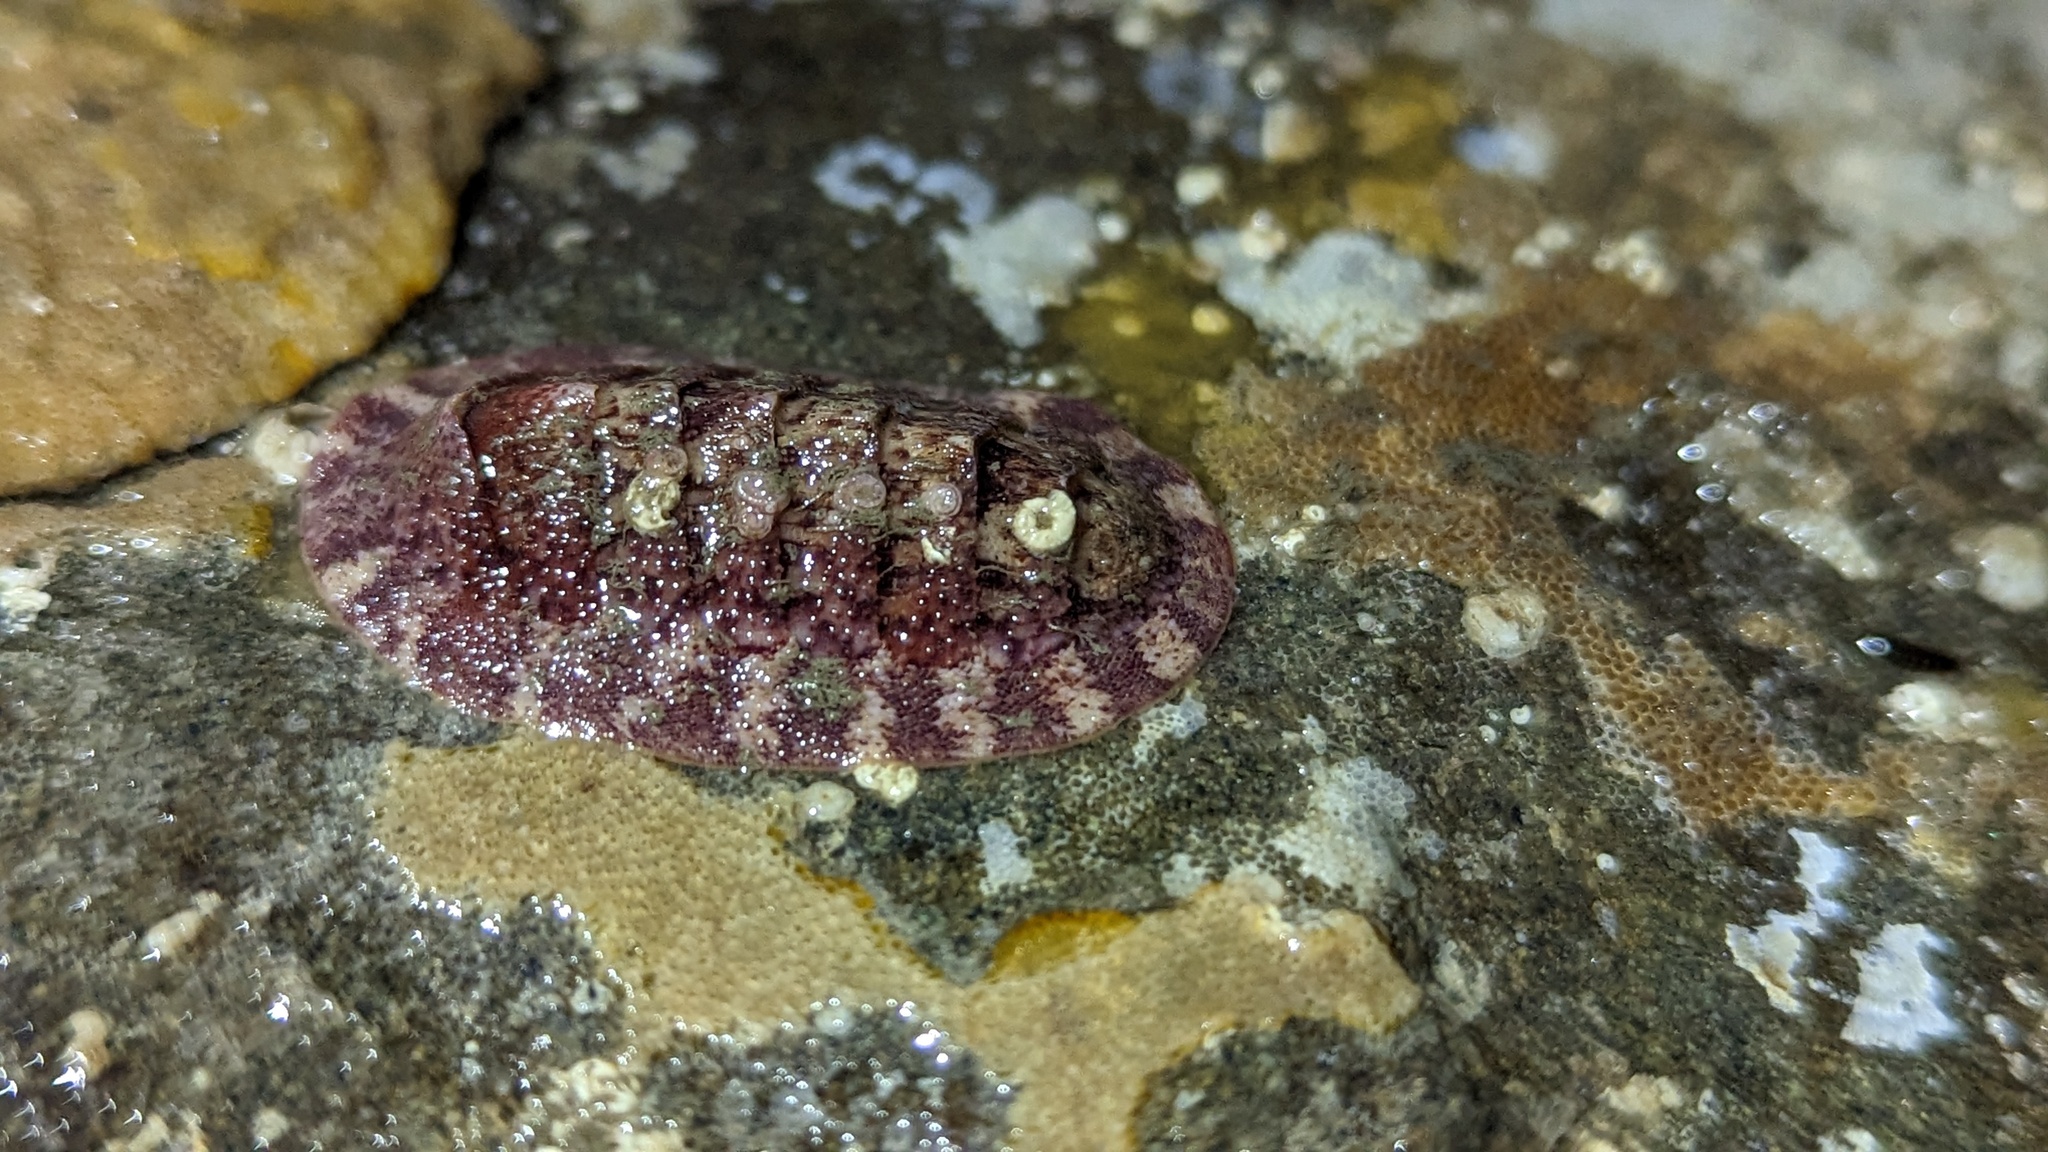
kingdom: Animalia
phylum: Mollusca
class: Polyplacophora
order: Chitonida
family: Ischnochitonidae
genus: Lepidozona
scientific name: Lepidozona mertensii
